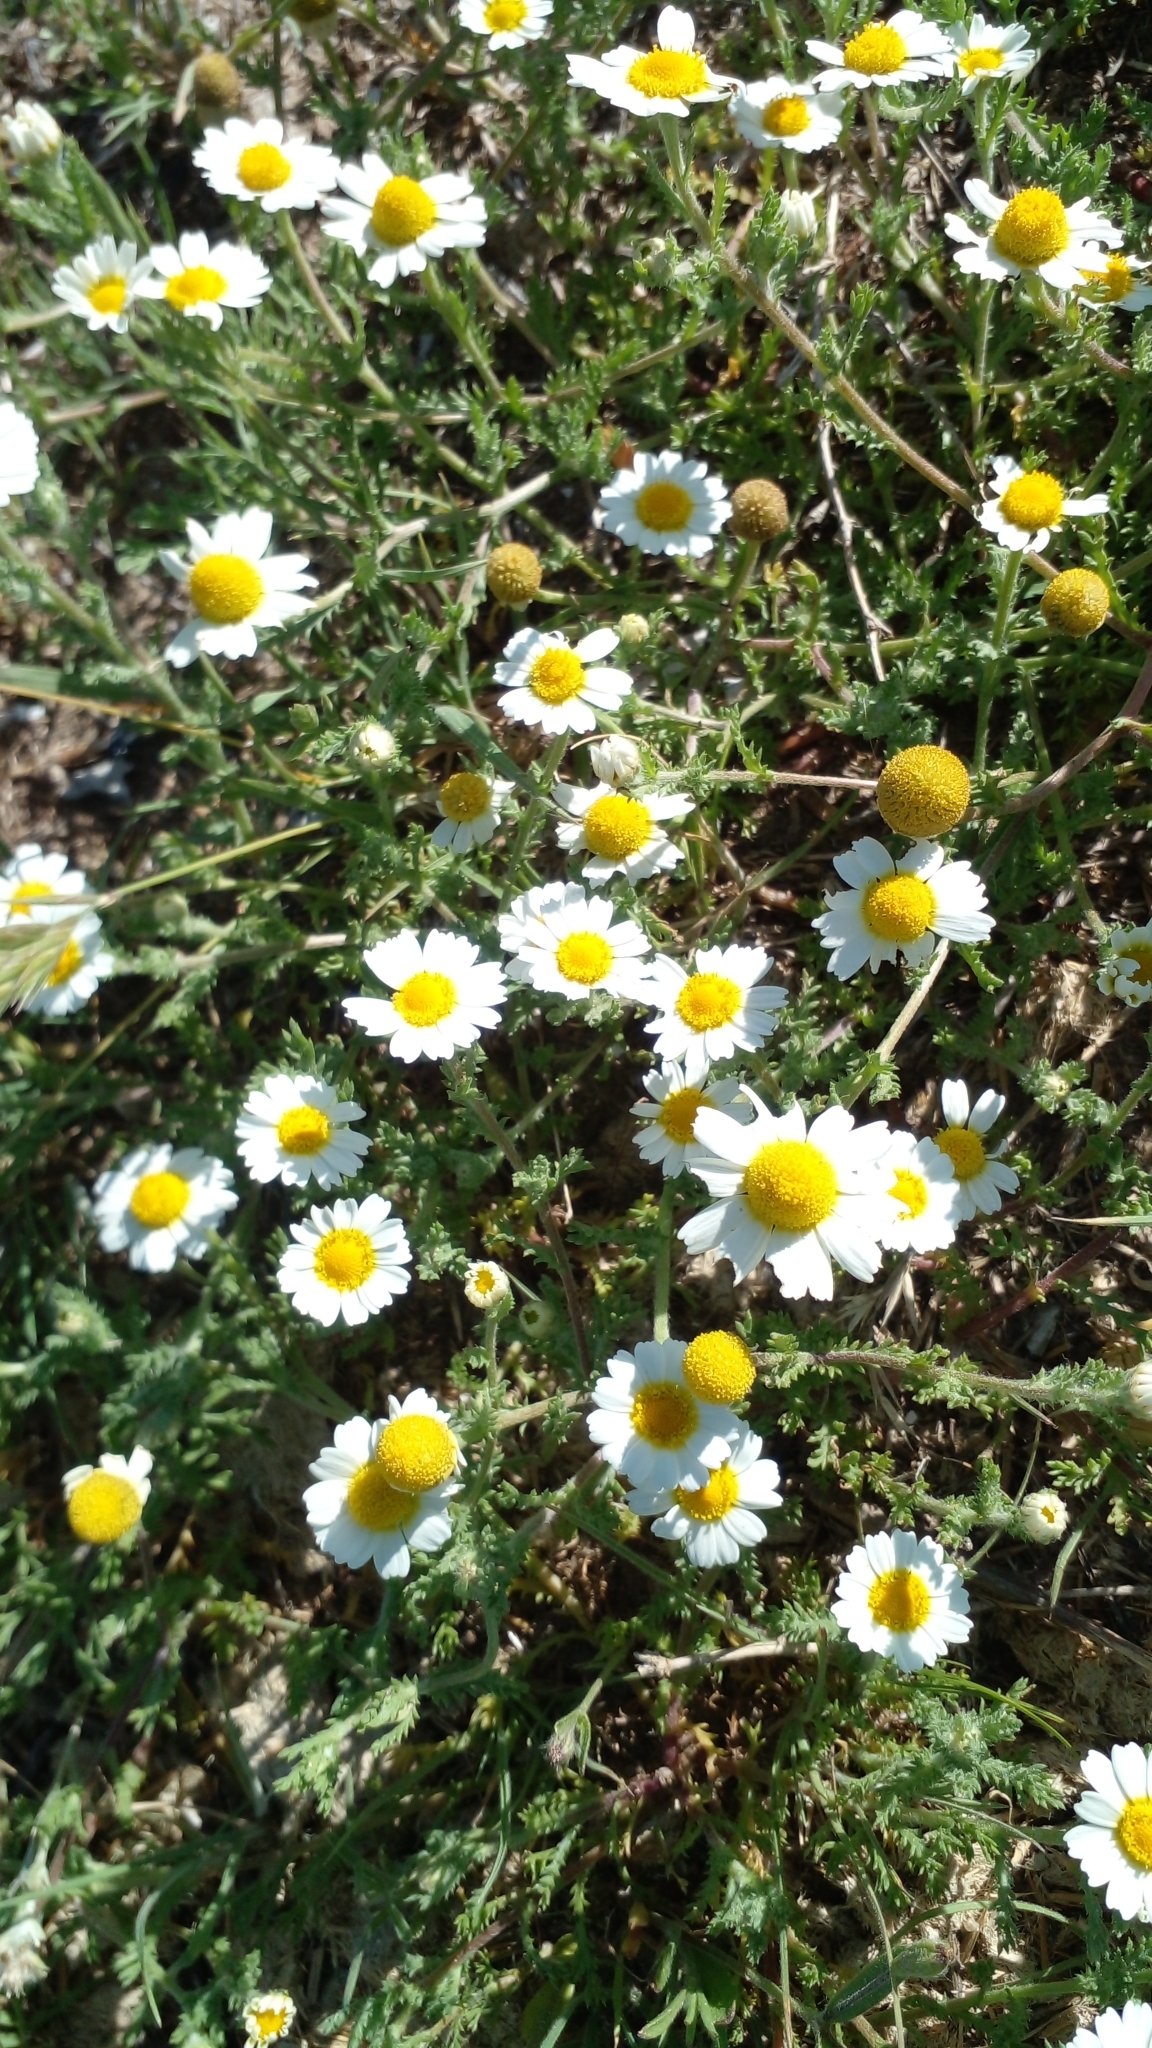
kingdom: Plantae
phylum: Tracheophyta
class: Magnoliopsida
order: Asterales
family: Asteraceae
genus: Cladanthus
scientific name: Cladanthus mixtus
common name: Weedy dogfennel
